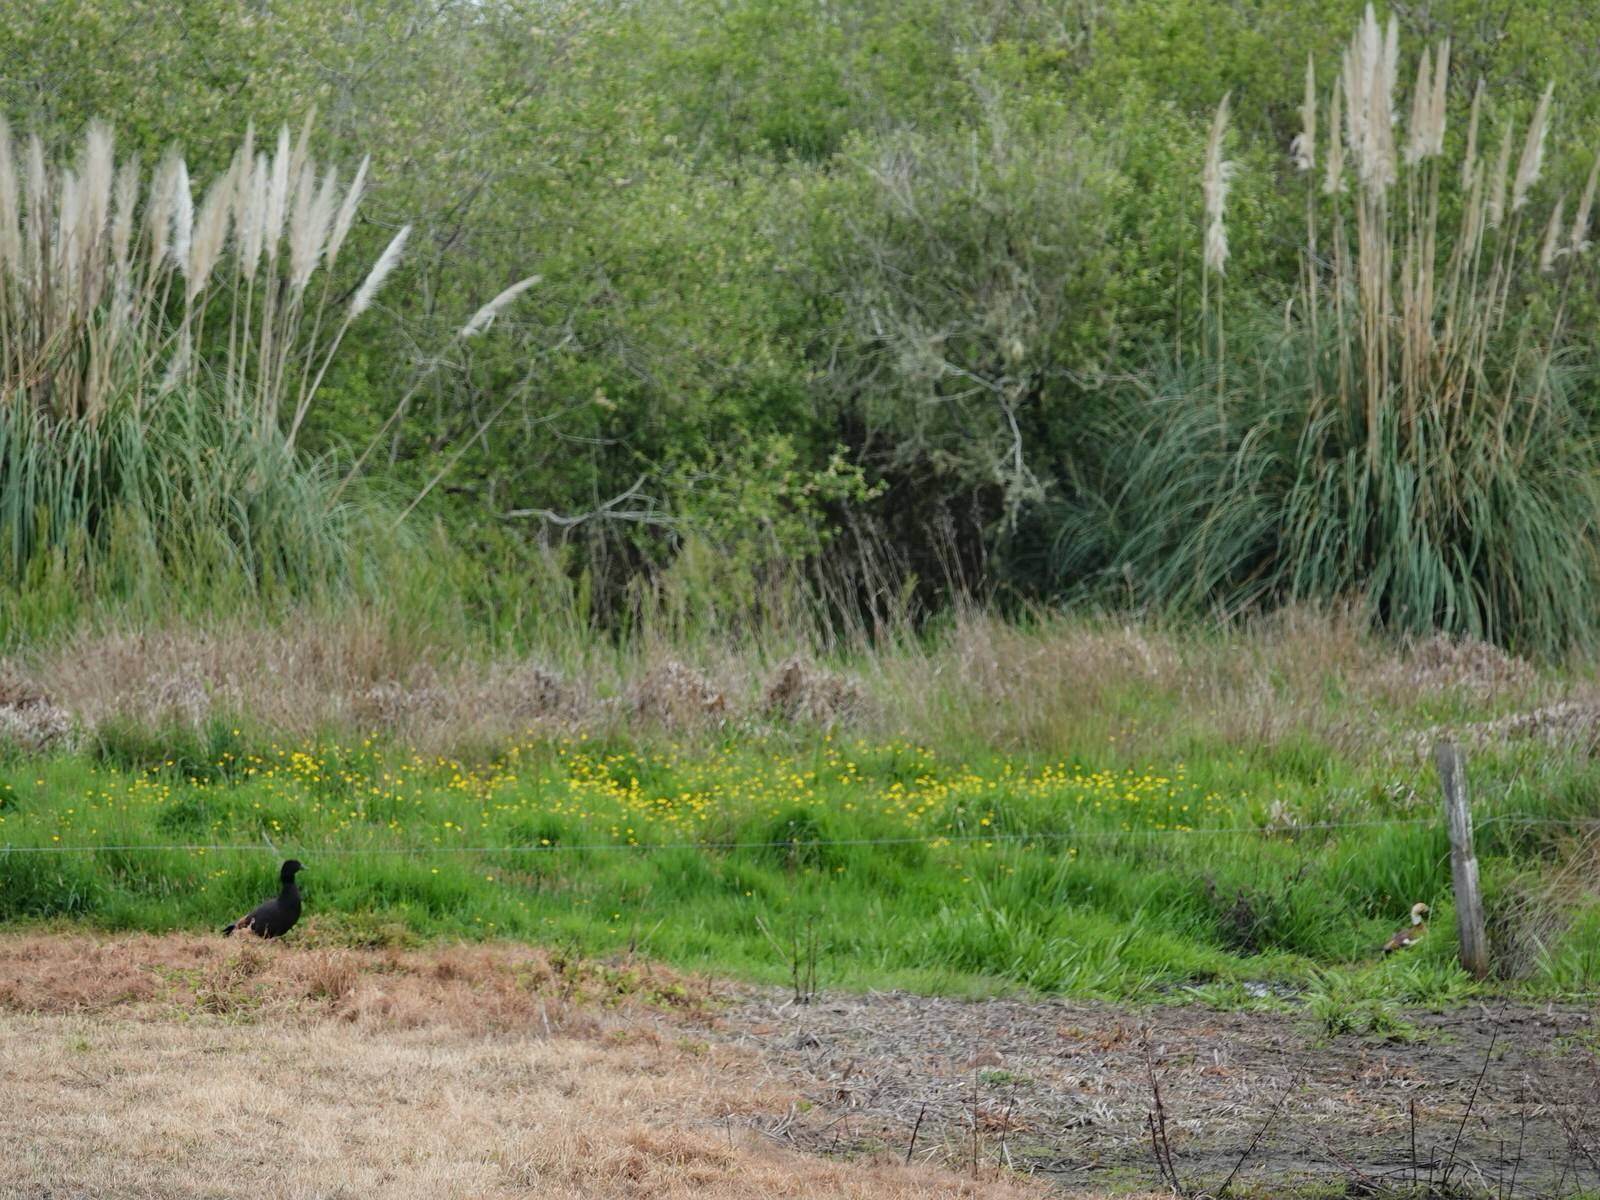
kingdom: Animalia
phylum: Chordata
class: Aves
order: Anseriformes
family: Anatidae
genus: Tadorna
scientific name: Tadorna variegata
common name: Paradise shelduck
